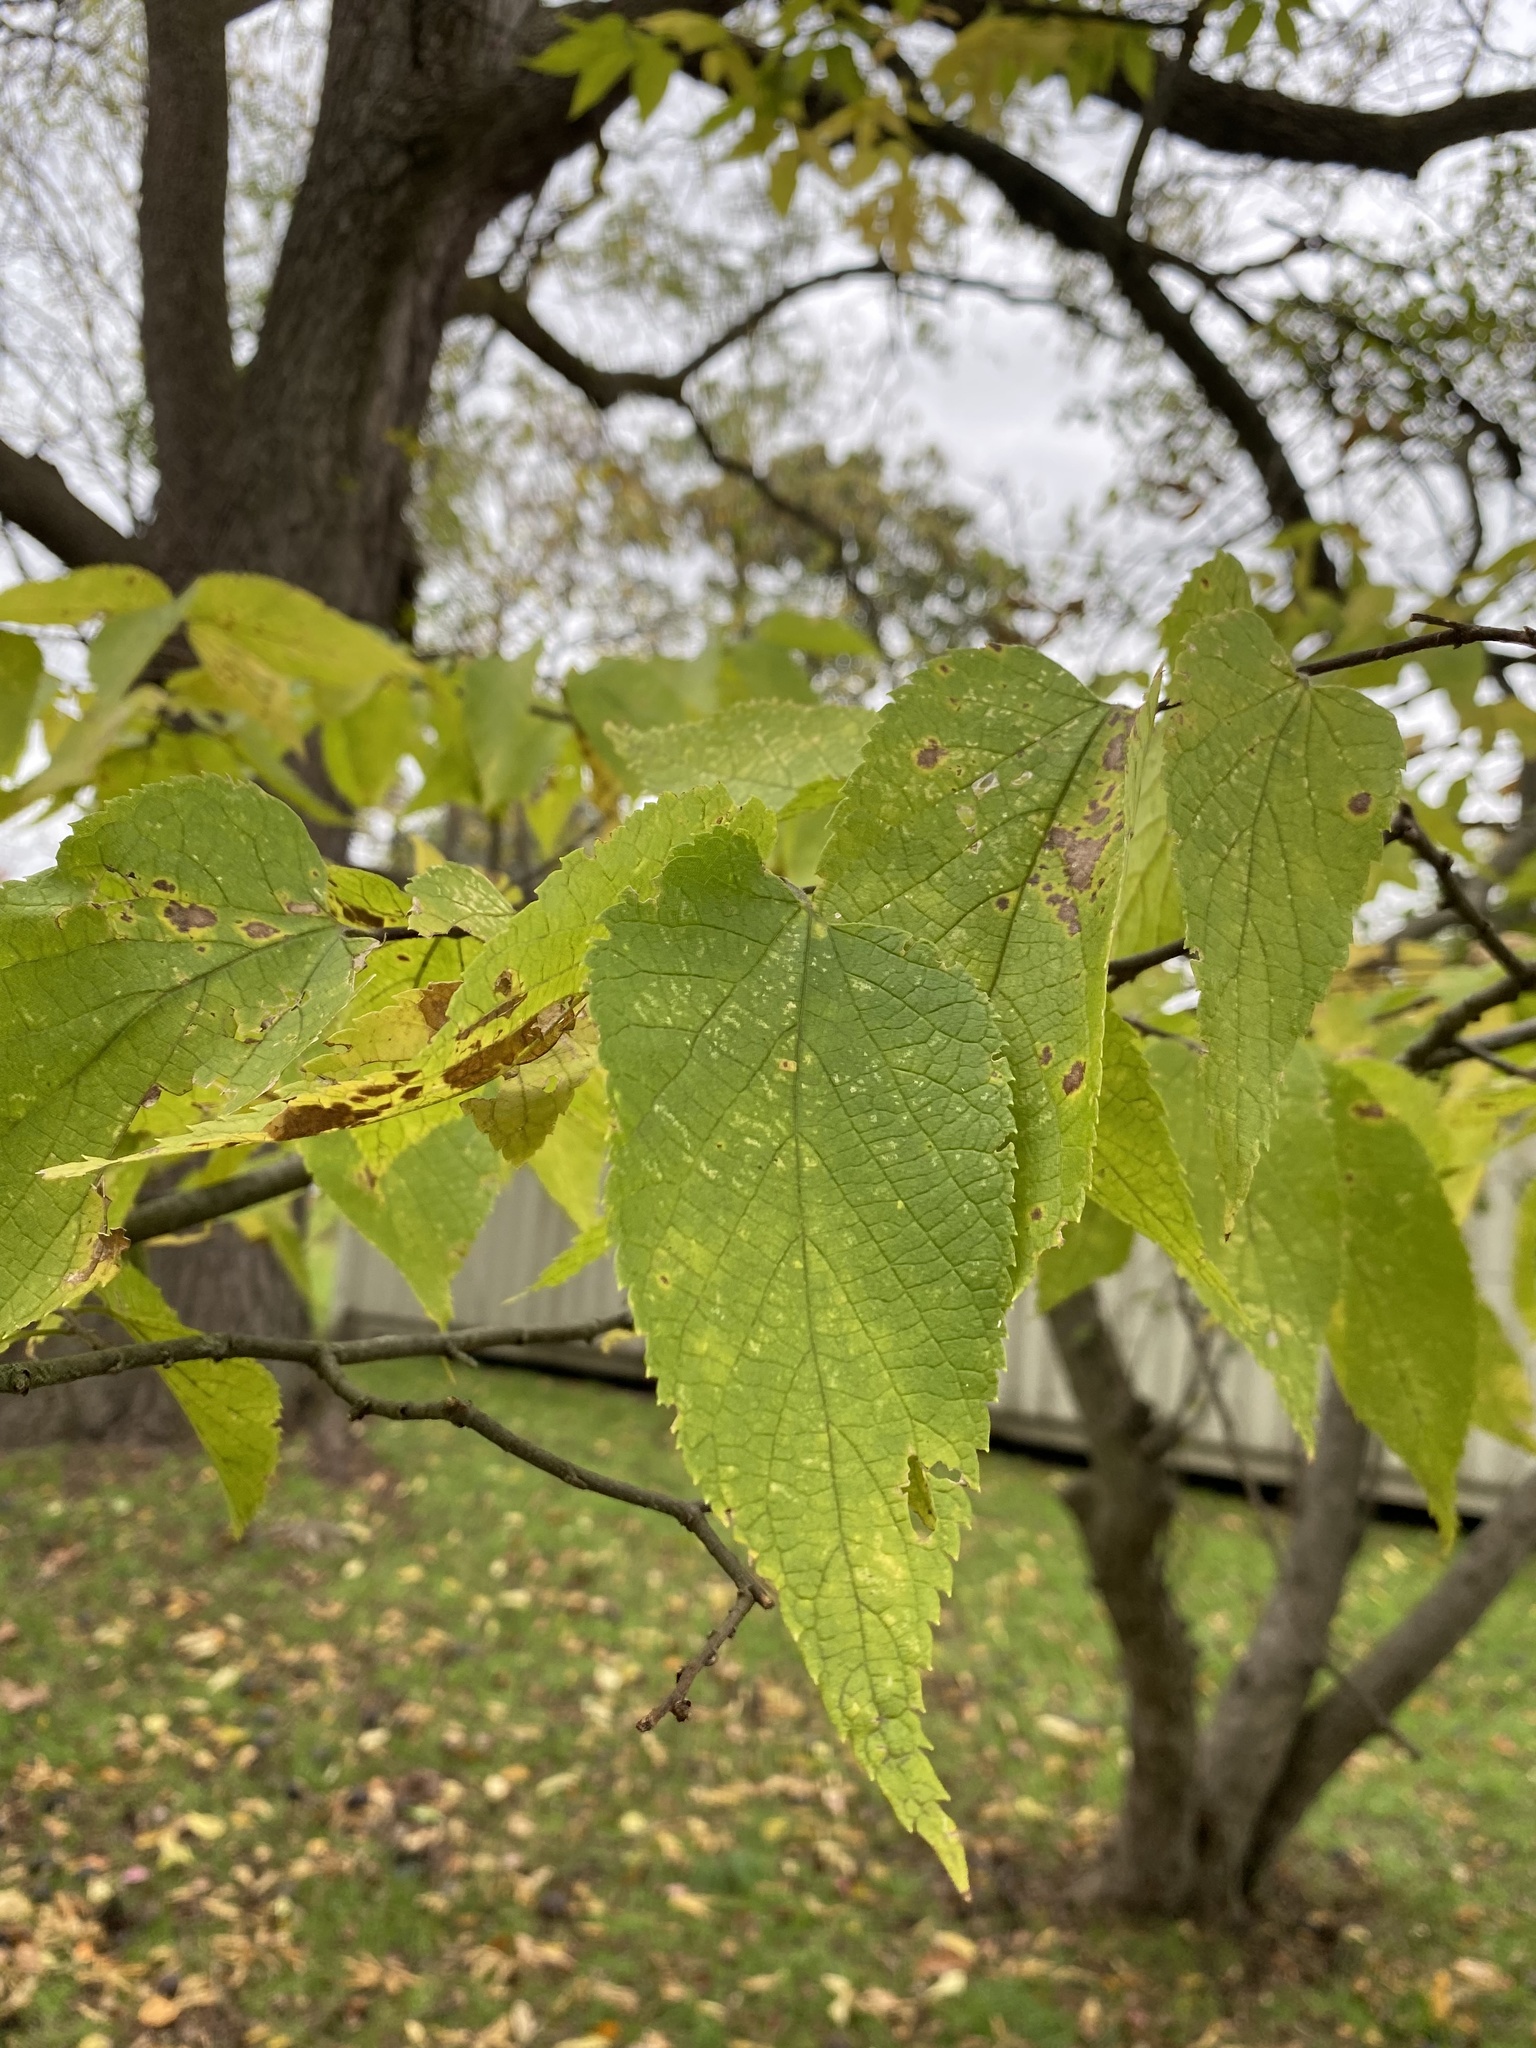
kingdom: Plantae
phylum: Tracheophyta
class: Magnoliopsida
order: Rosales
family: Cannabaceae
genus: Celtis
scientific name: Celtis occidentalis
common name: Common hackberry
